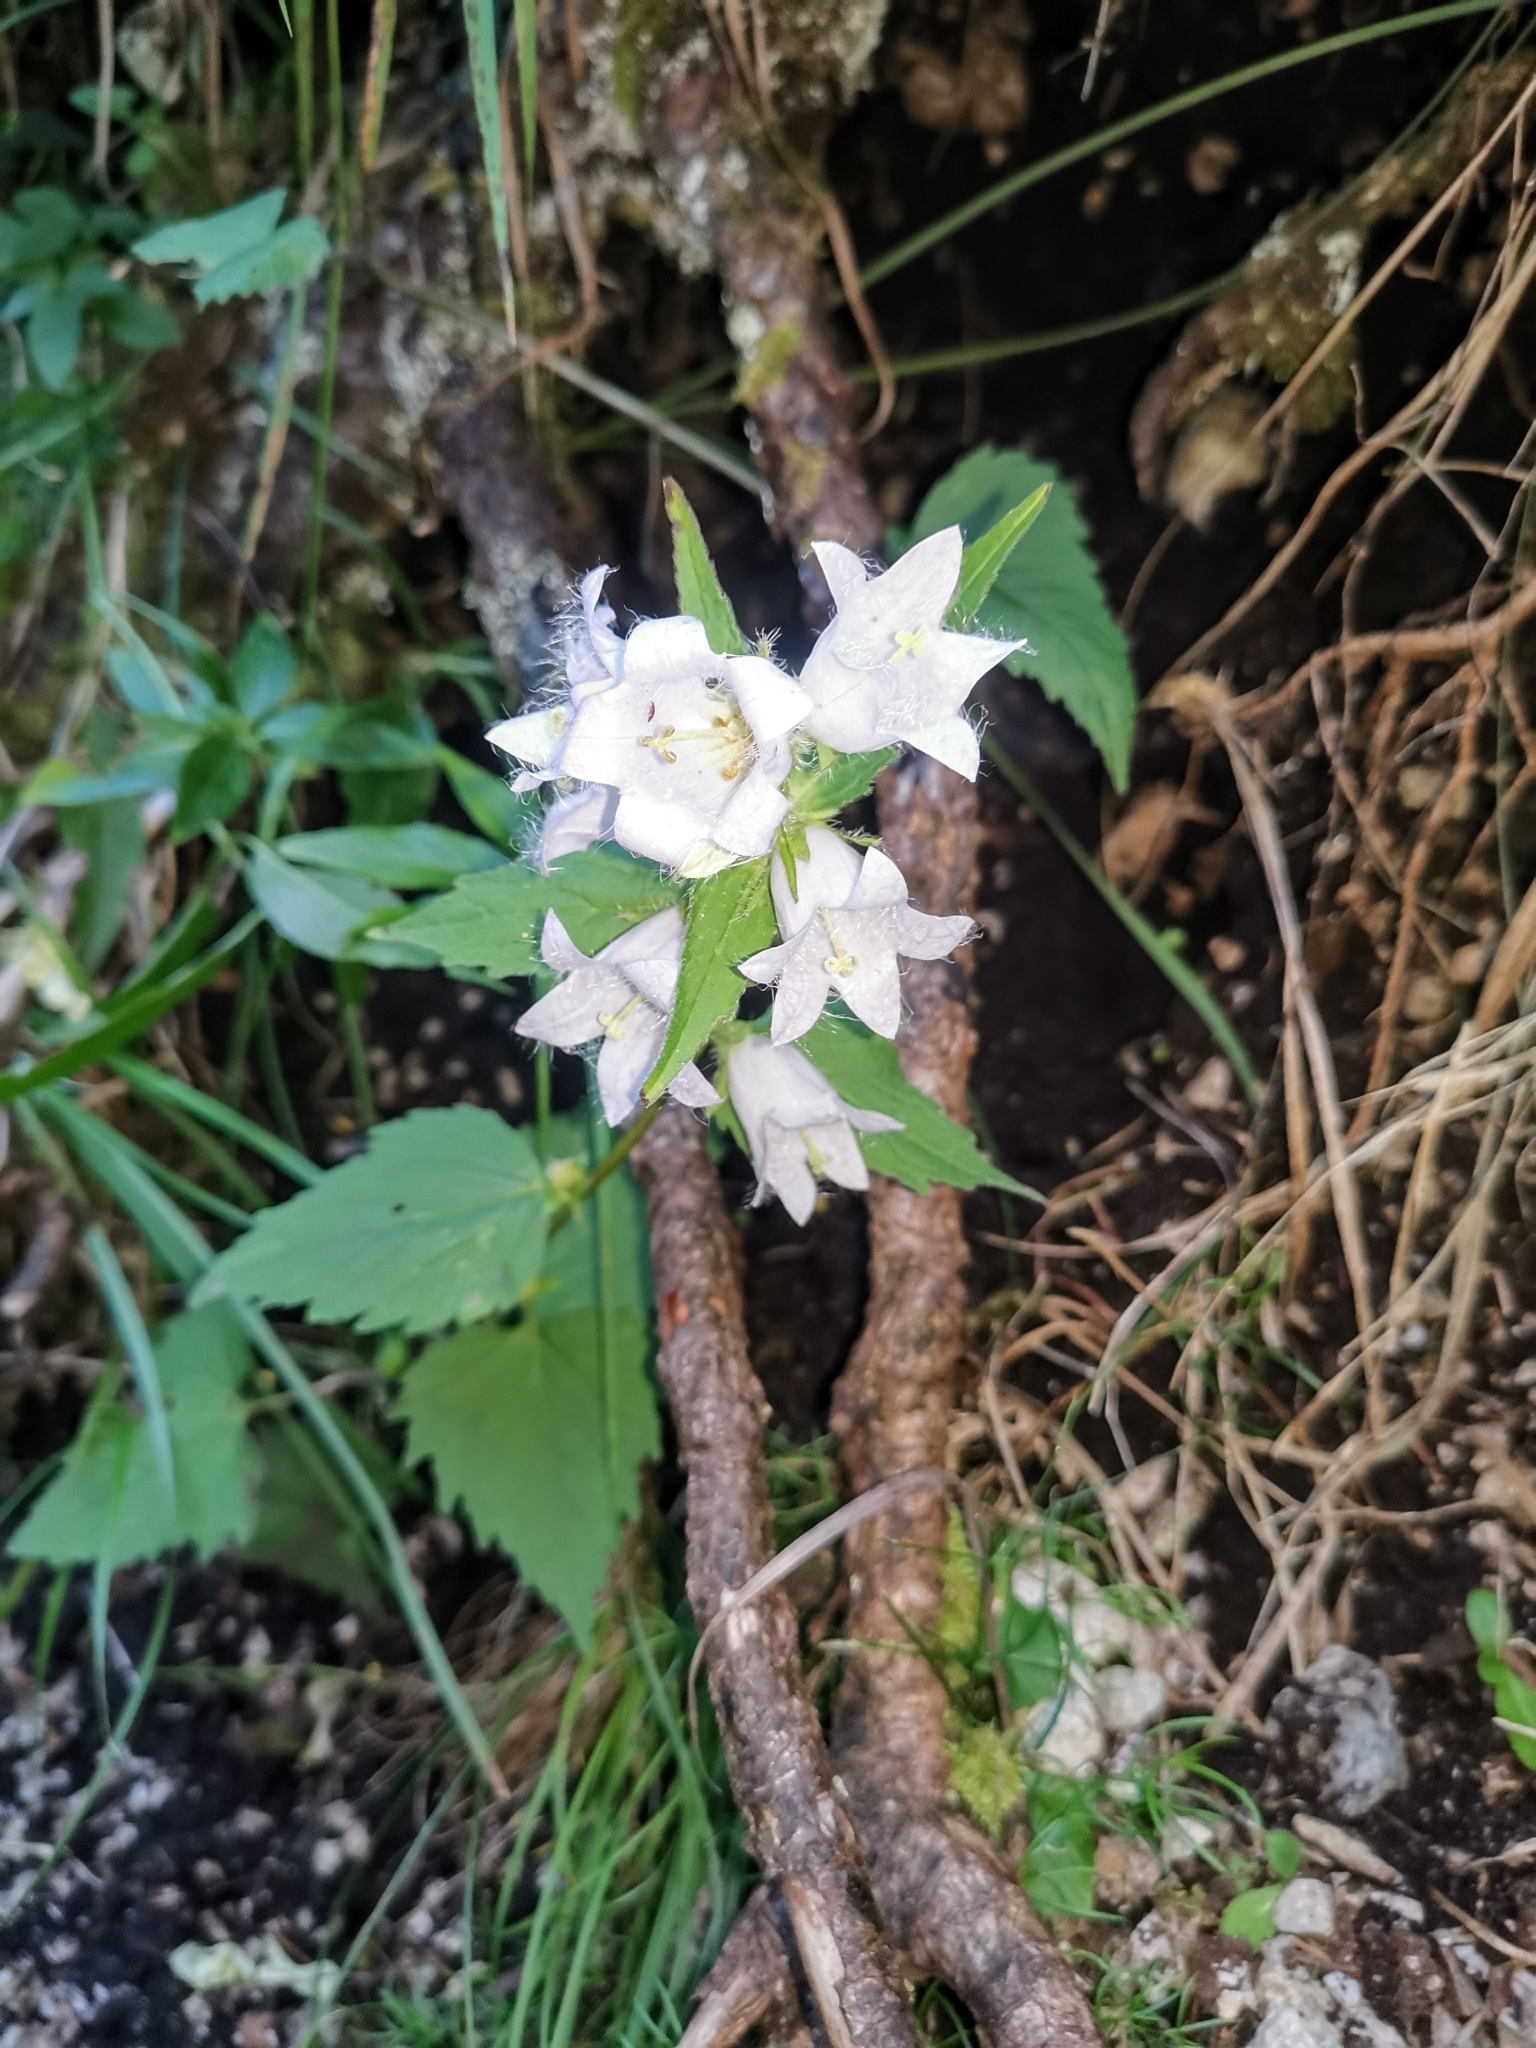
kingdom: Plantae
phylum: Tracheophyta
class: Magnoliopsida
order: Asterales
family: Campanulaceae
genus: Campanula
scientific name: Campanula trachelium
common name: Nettle-leaved bellflower
